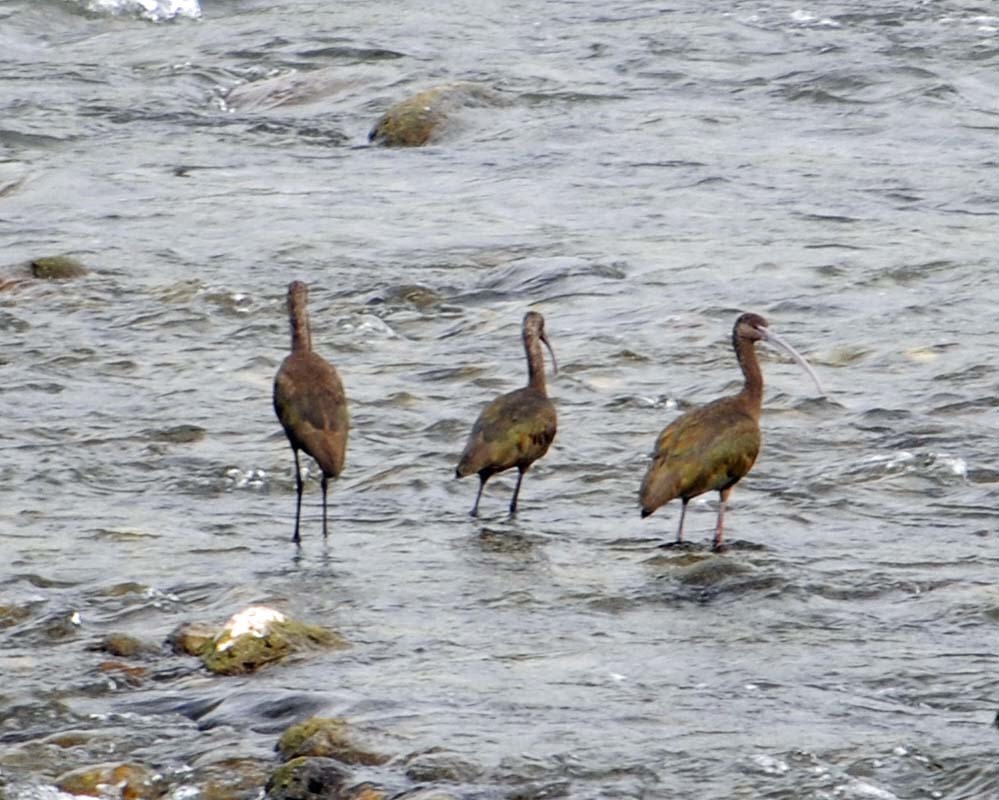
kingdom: Animalia
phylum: Chordata
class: Aves
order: Pelecaniformes
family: Threskiornithidae
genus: Plegadis
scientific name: Plegadis chihi
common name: White-faced ibis
